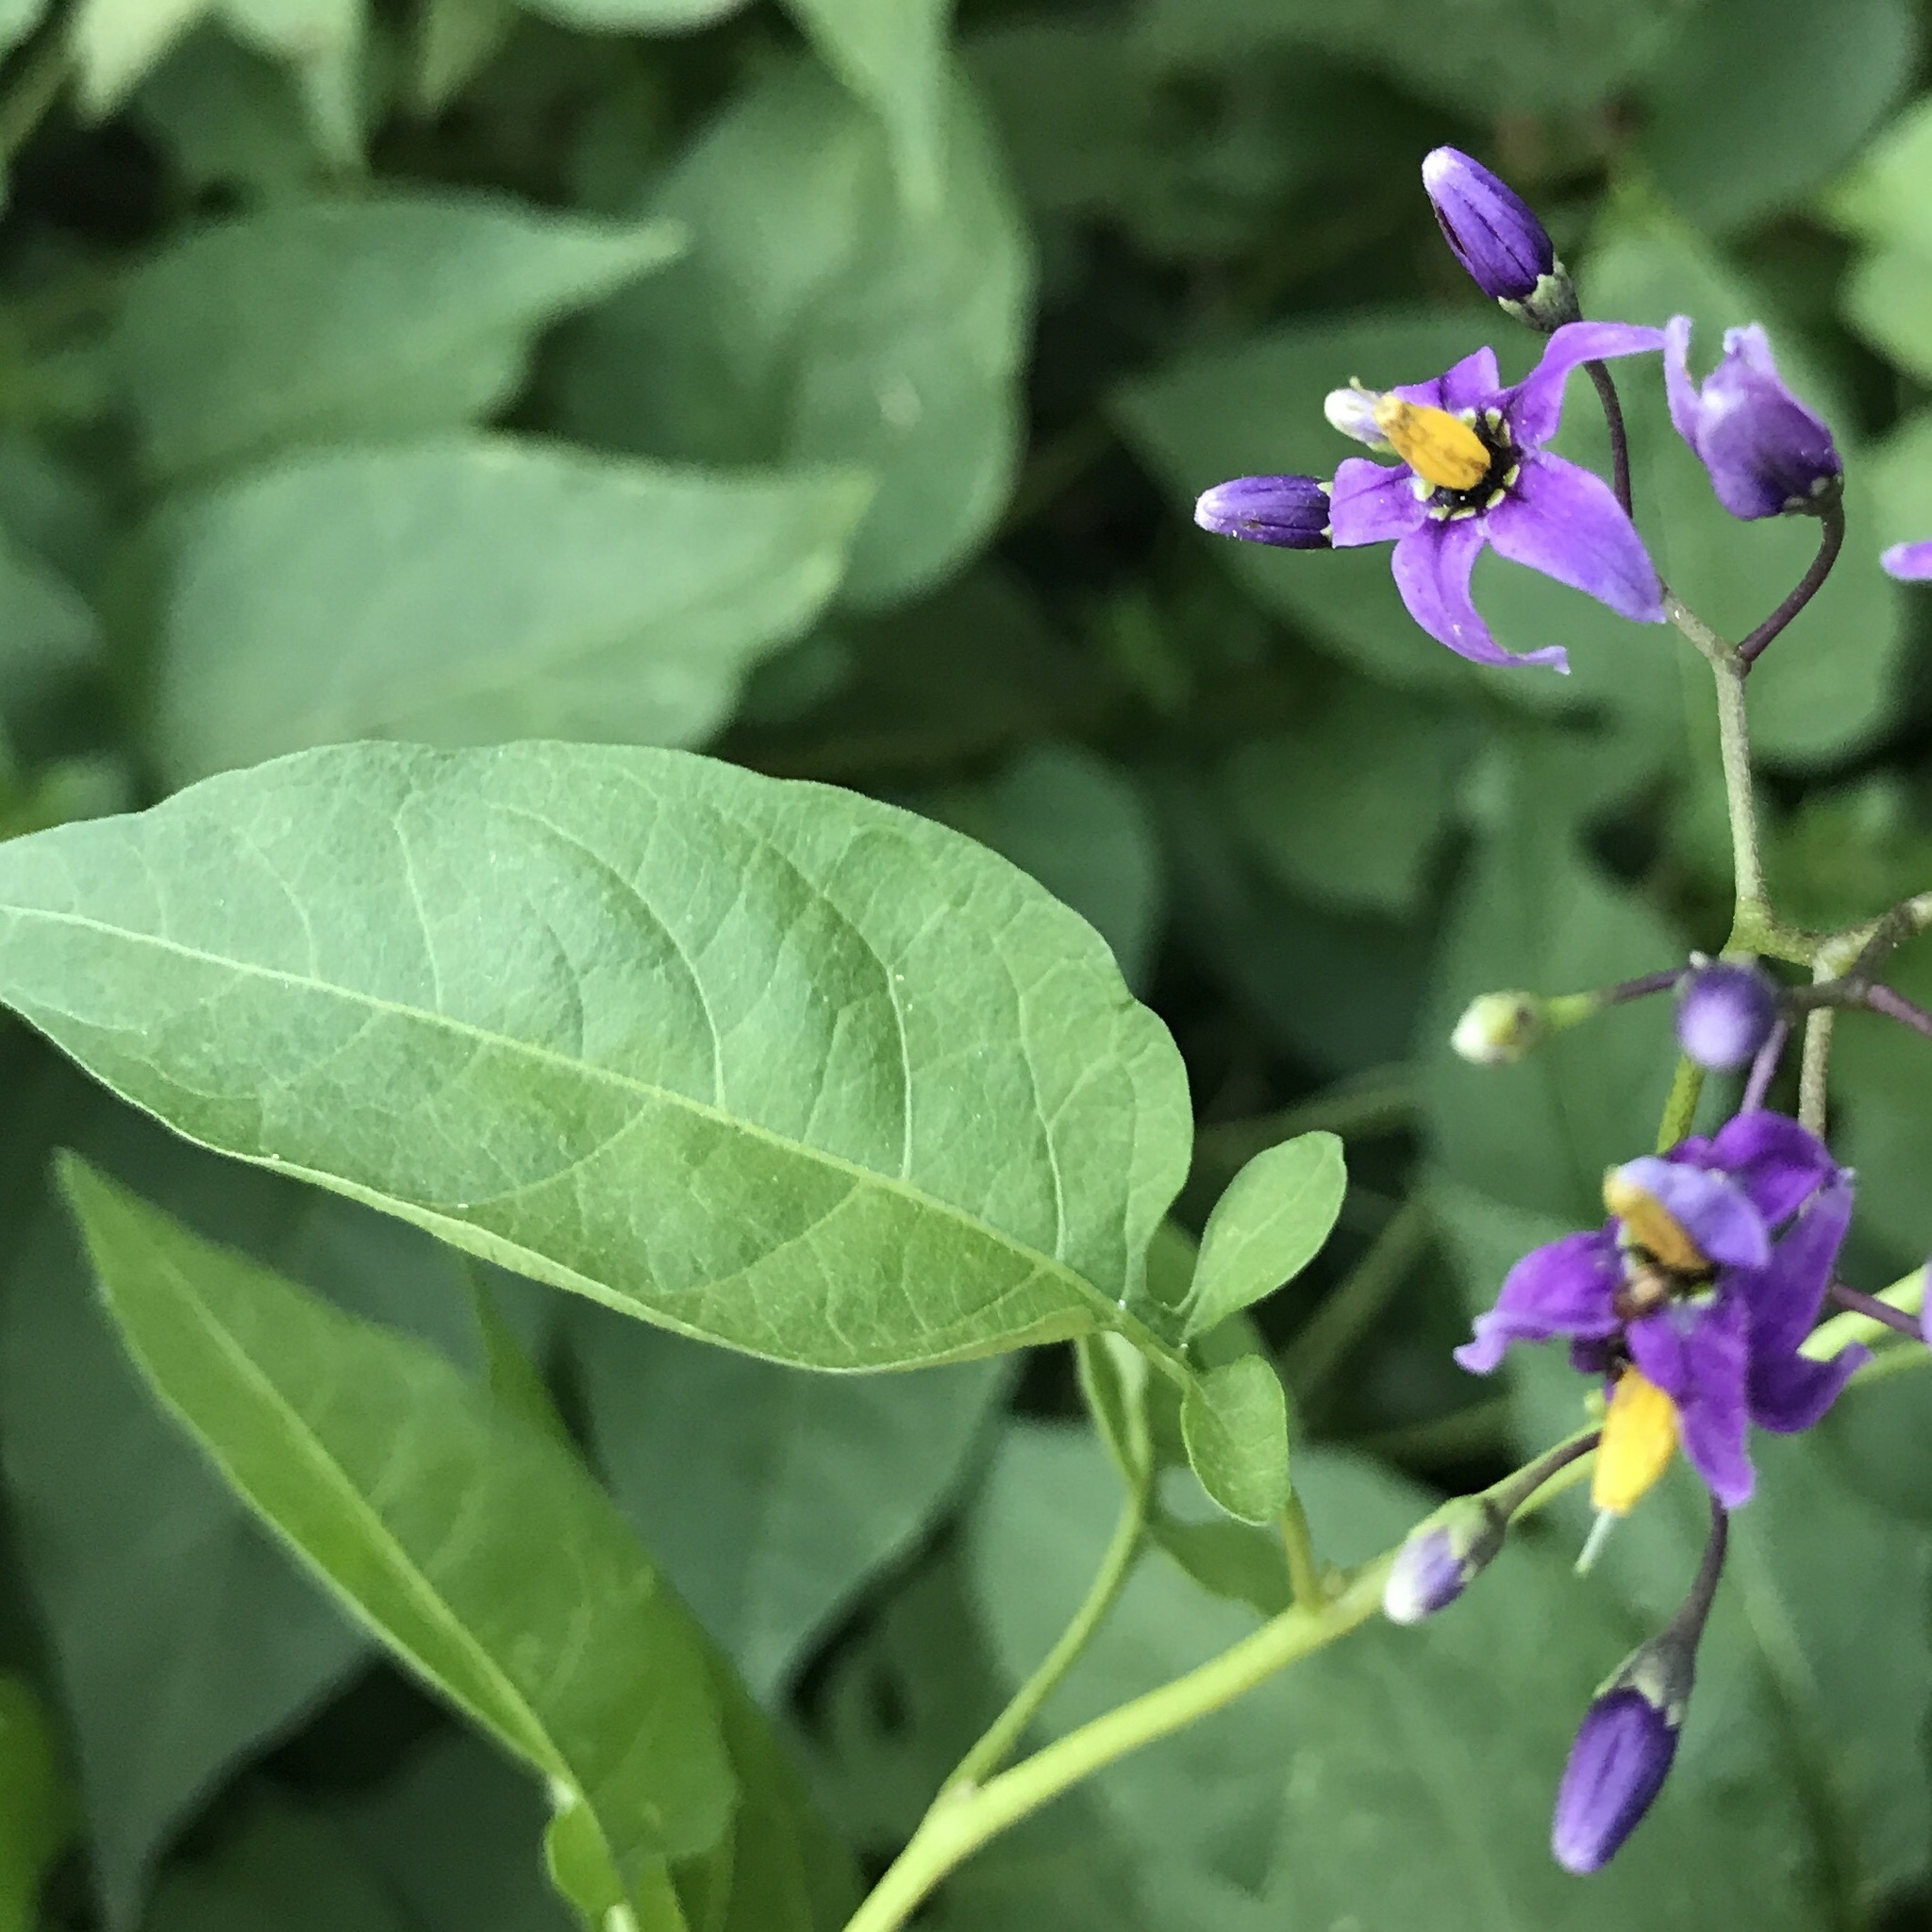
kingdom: Plantae
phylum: Tracheophyta
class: Magnoliopsida
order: Solanales
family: Solanaceae
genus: Solanum
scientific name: Solanum dulcamara
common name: Climbing nightshade
